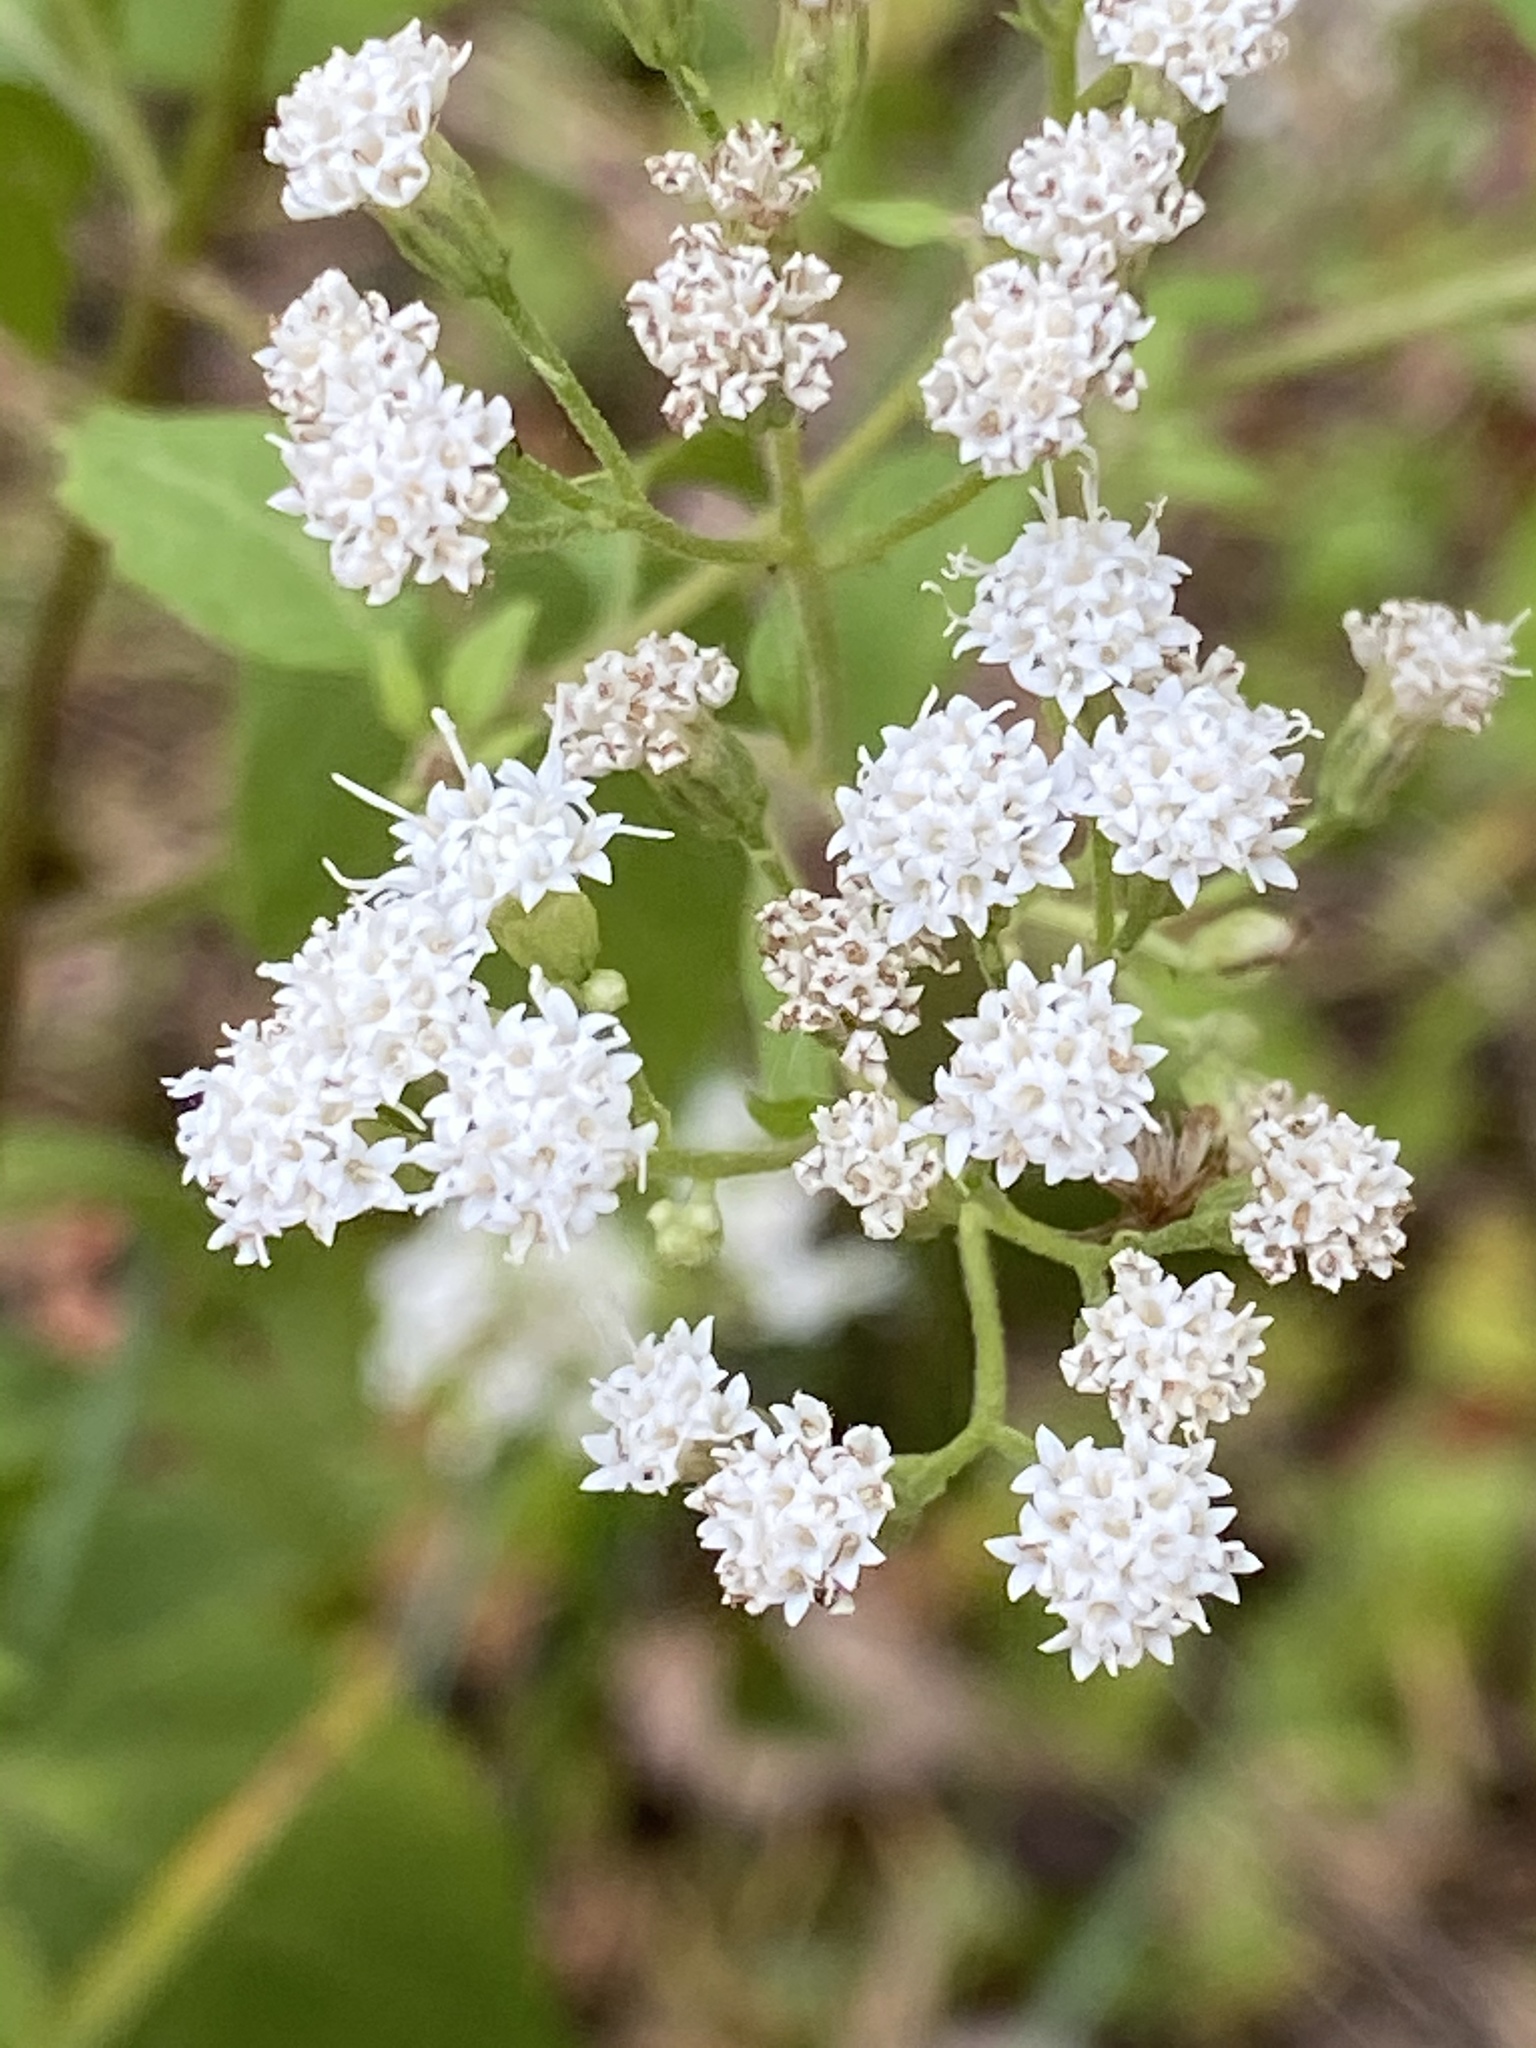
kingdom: Plantae
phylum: Tracheophyta
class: Magnoliopsida
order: Asterales
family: Asteraceae
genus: Ageratina
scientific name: Ageratina altissima
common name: White snakeroot
